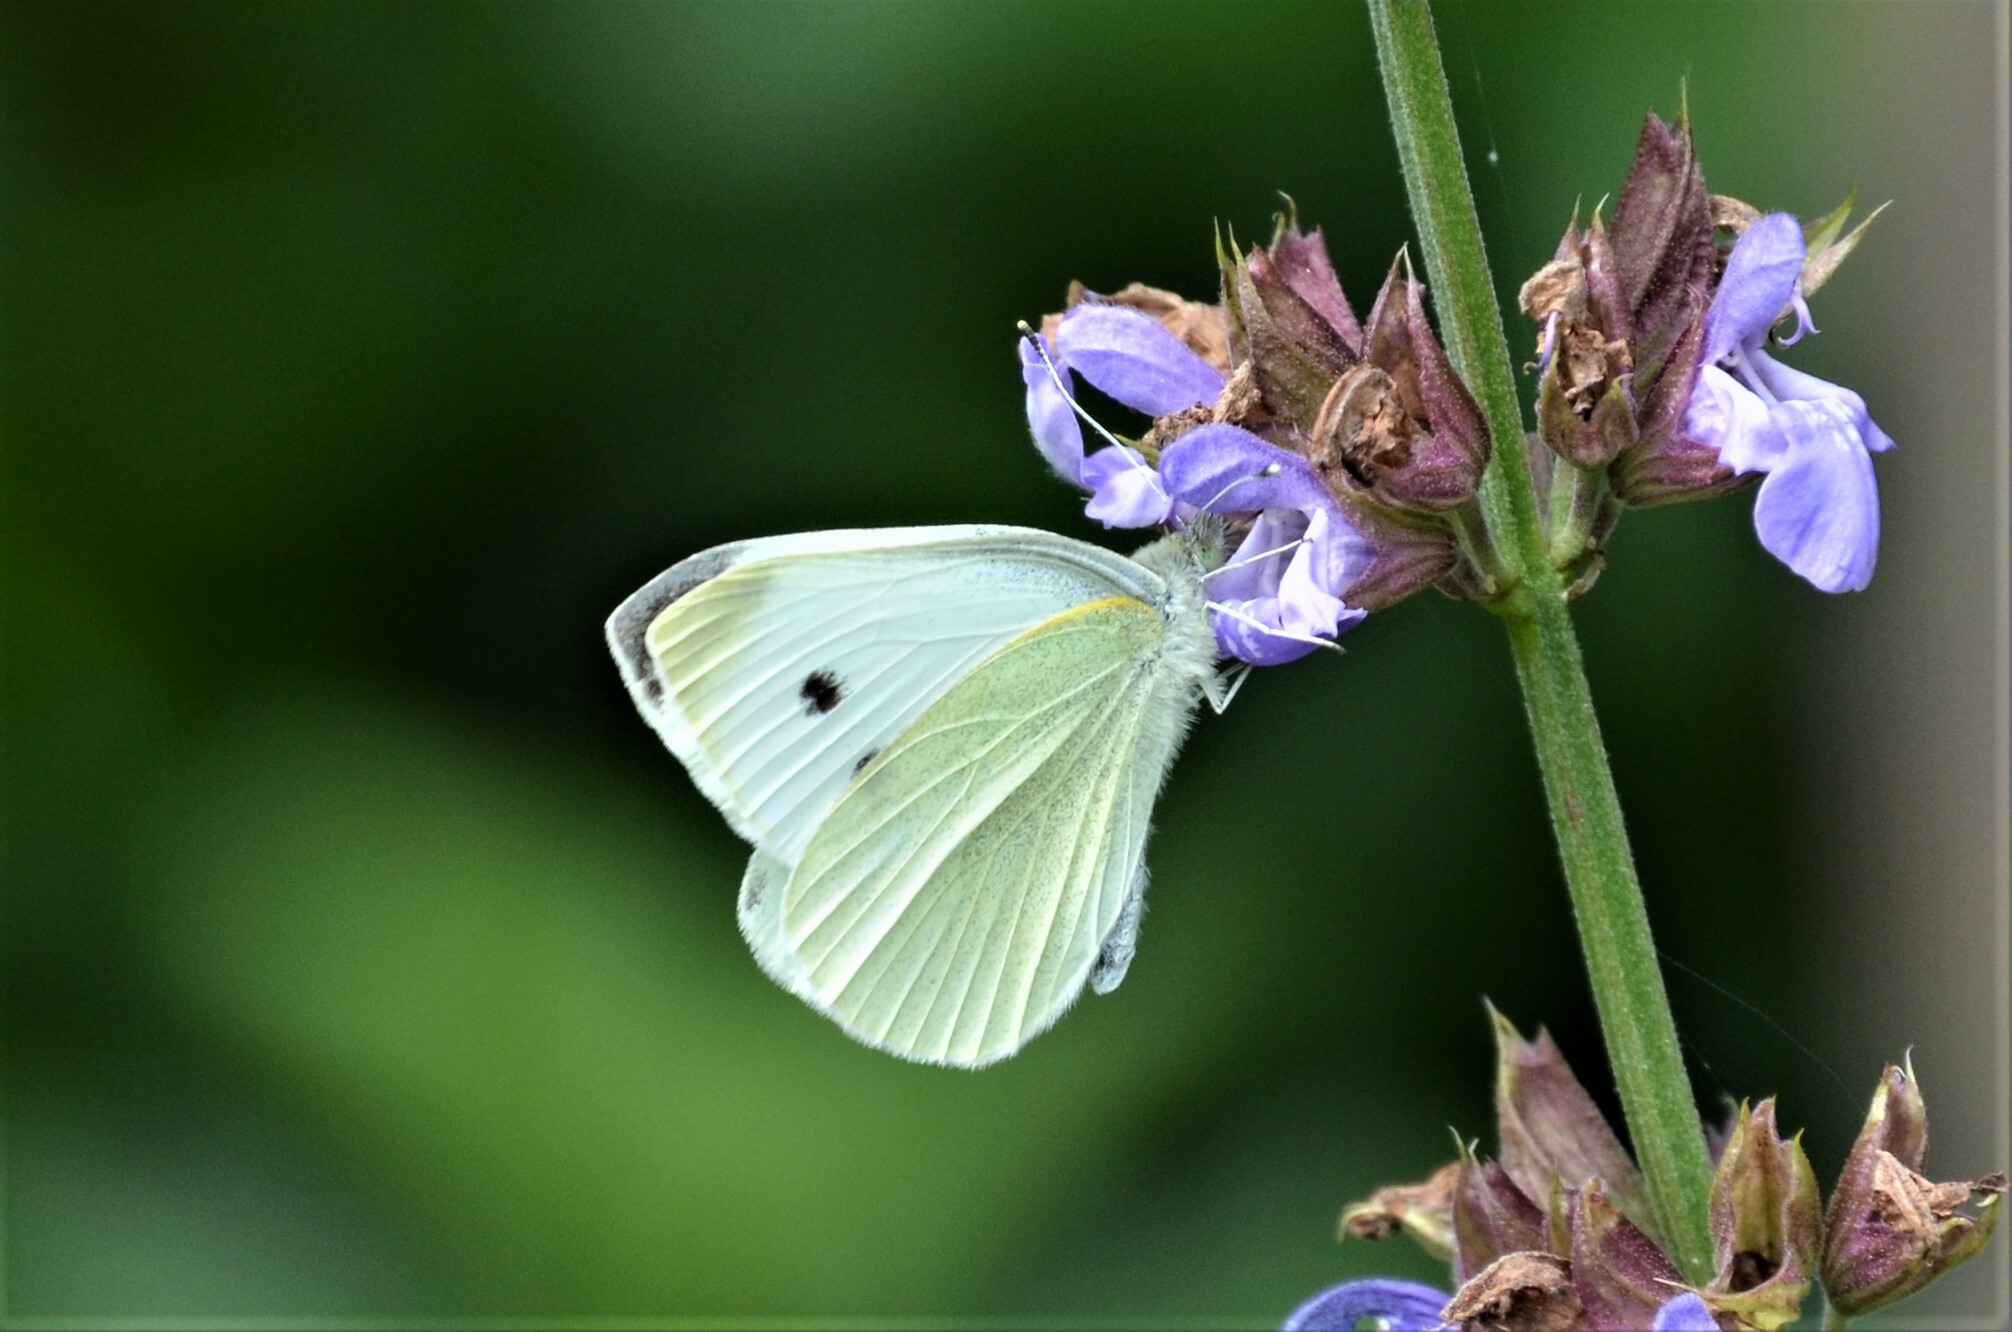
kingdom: Animalia
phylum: Arthropoda
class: Insecta
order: Lepidoptera
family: Pieridae
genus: Pieris
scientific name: Pieris rapae
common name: Small white
